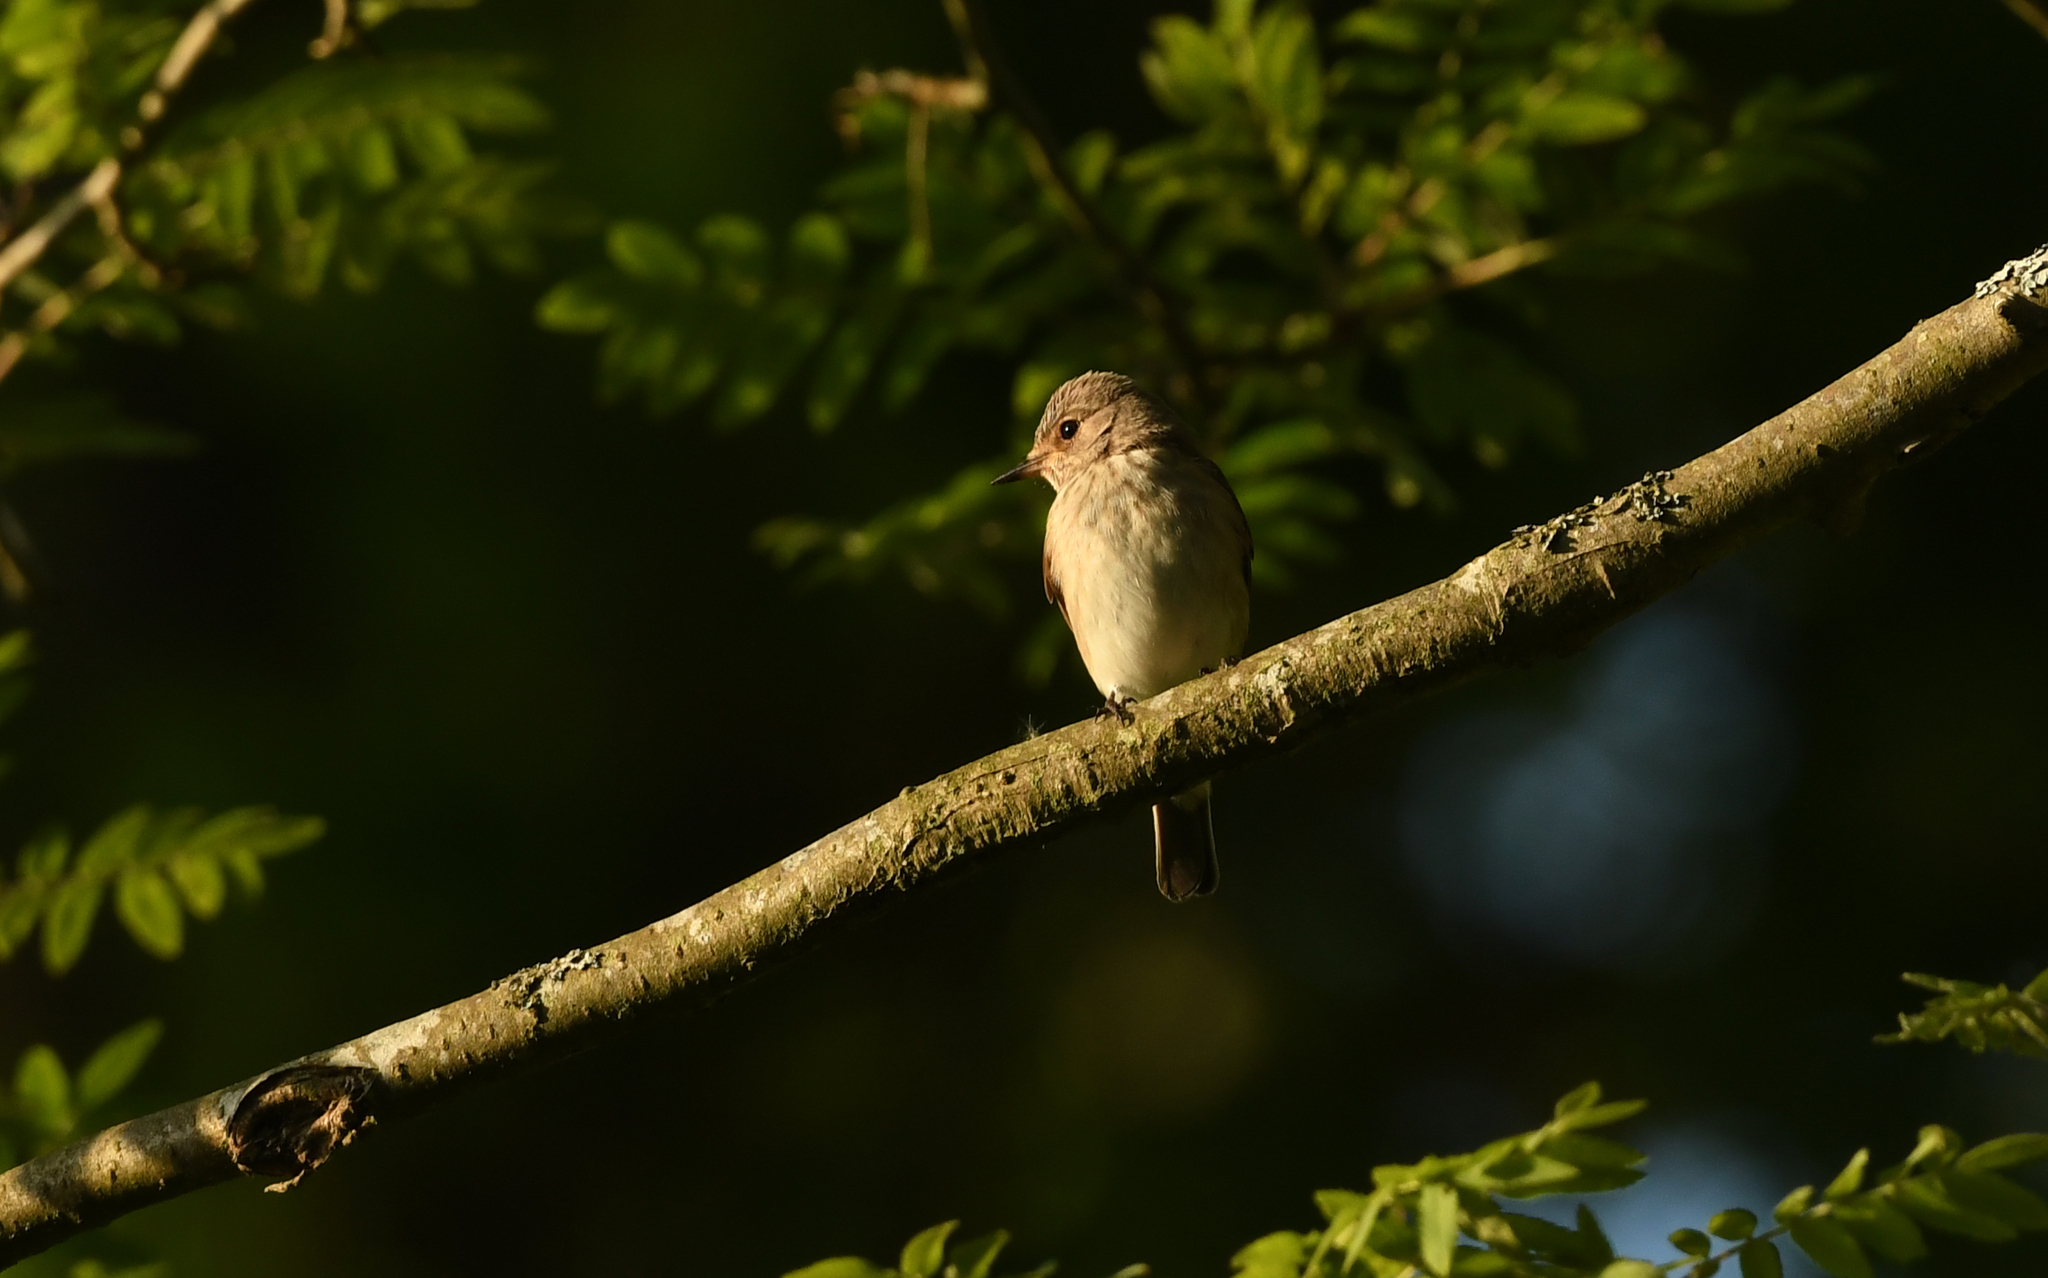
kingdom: Animalia
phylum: Chordata
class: Aves
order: Passeriformes
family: Muscicapidae
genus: Muscicapa
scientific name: Muscicapa striata
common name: Spotted flycatcher
